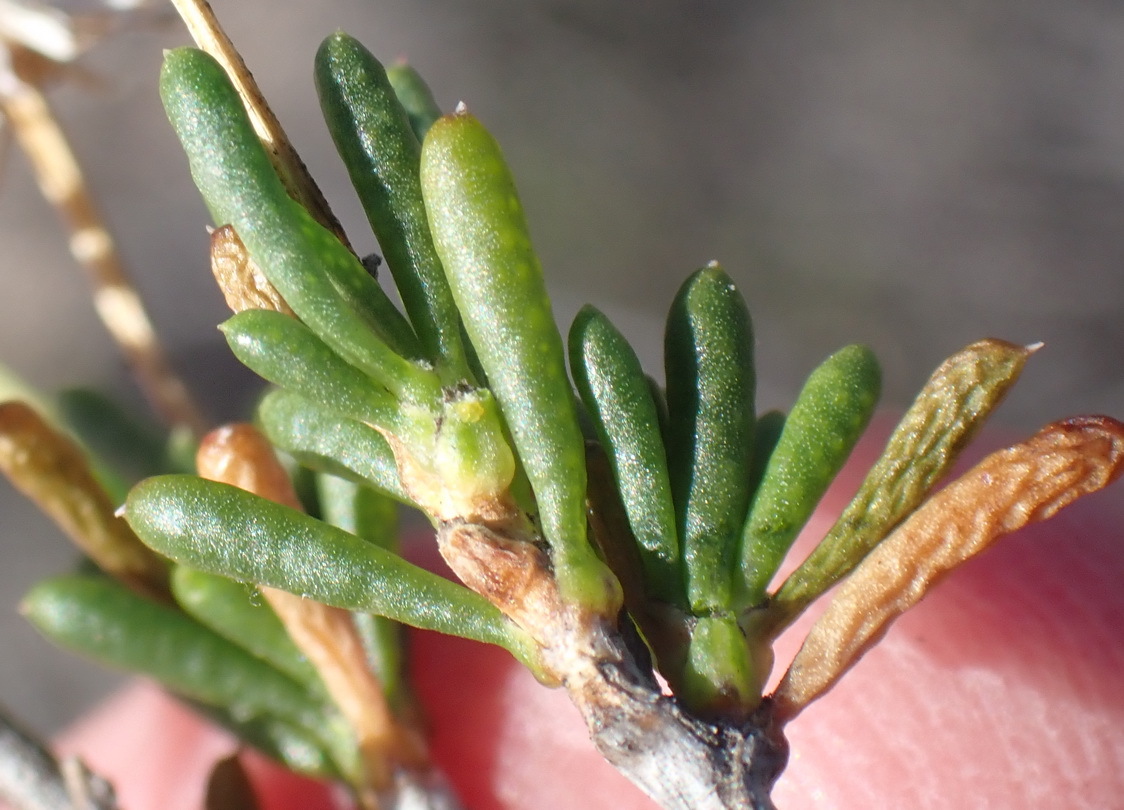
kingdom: Plantae
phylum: Tracheophyta
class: Magnoliopsida
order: Asterales
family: Asteraceae
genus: Felicia
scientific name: Felicia filifolia
